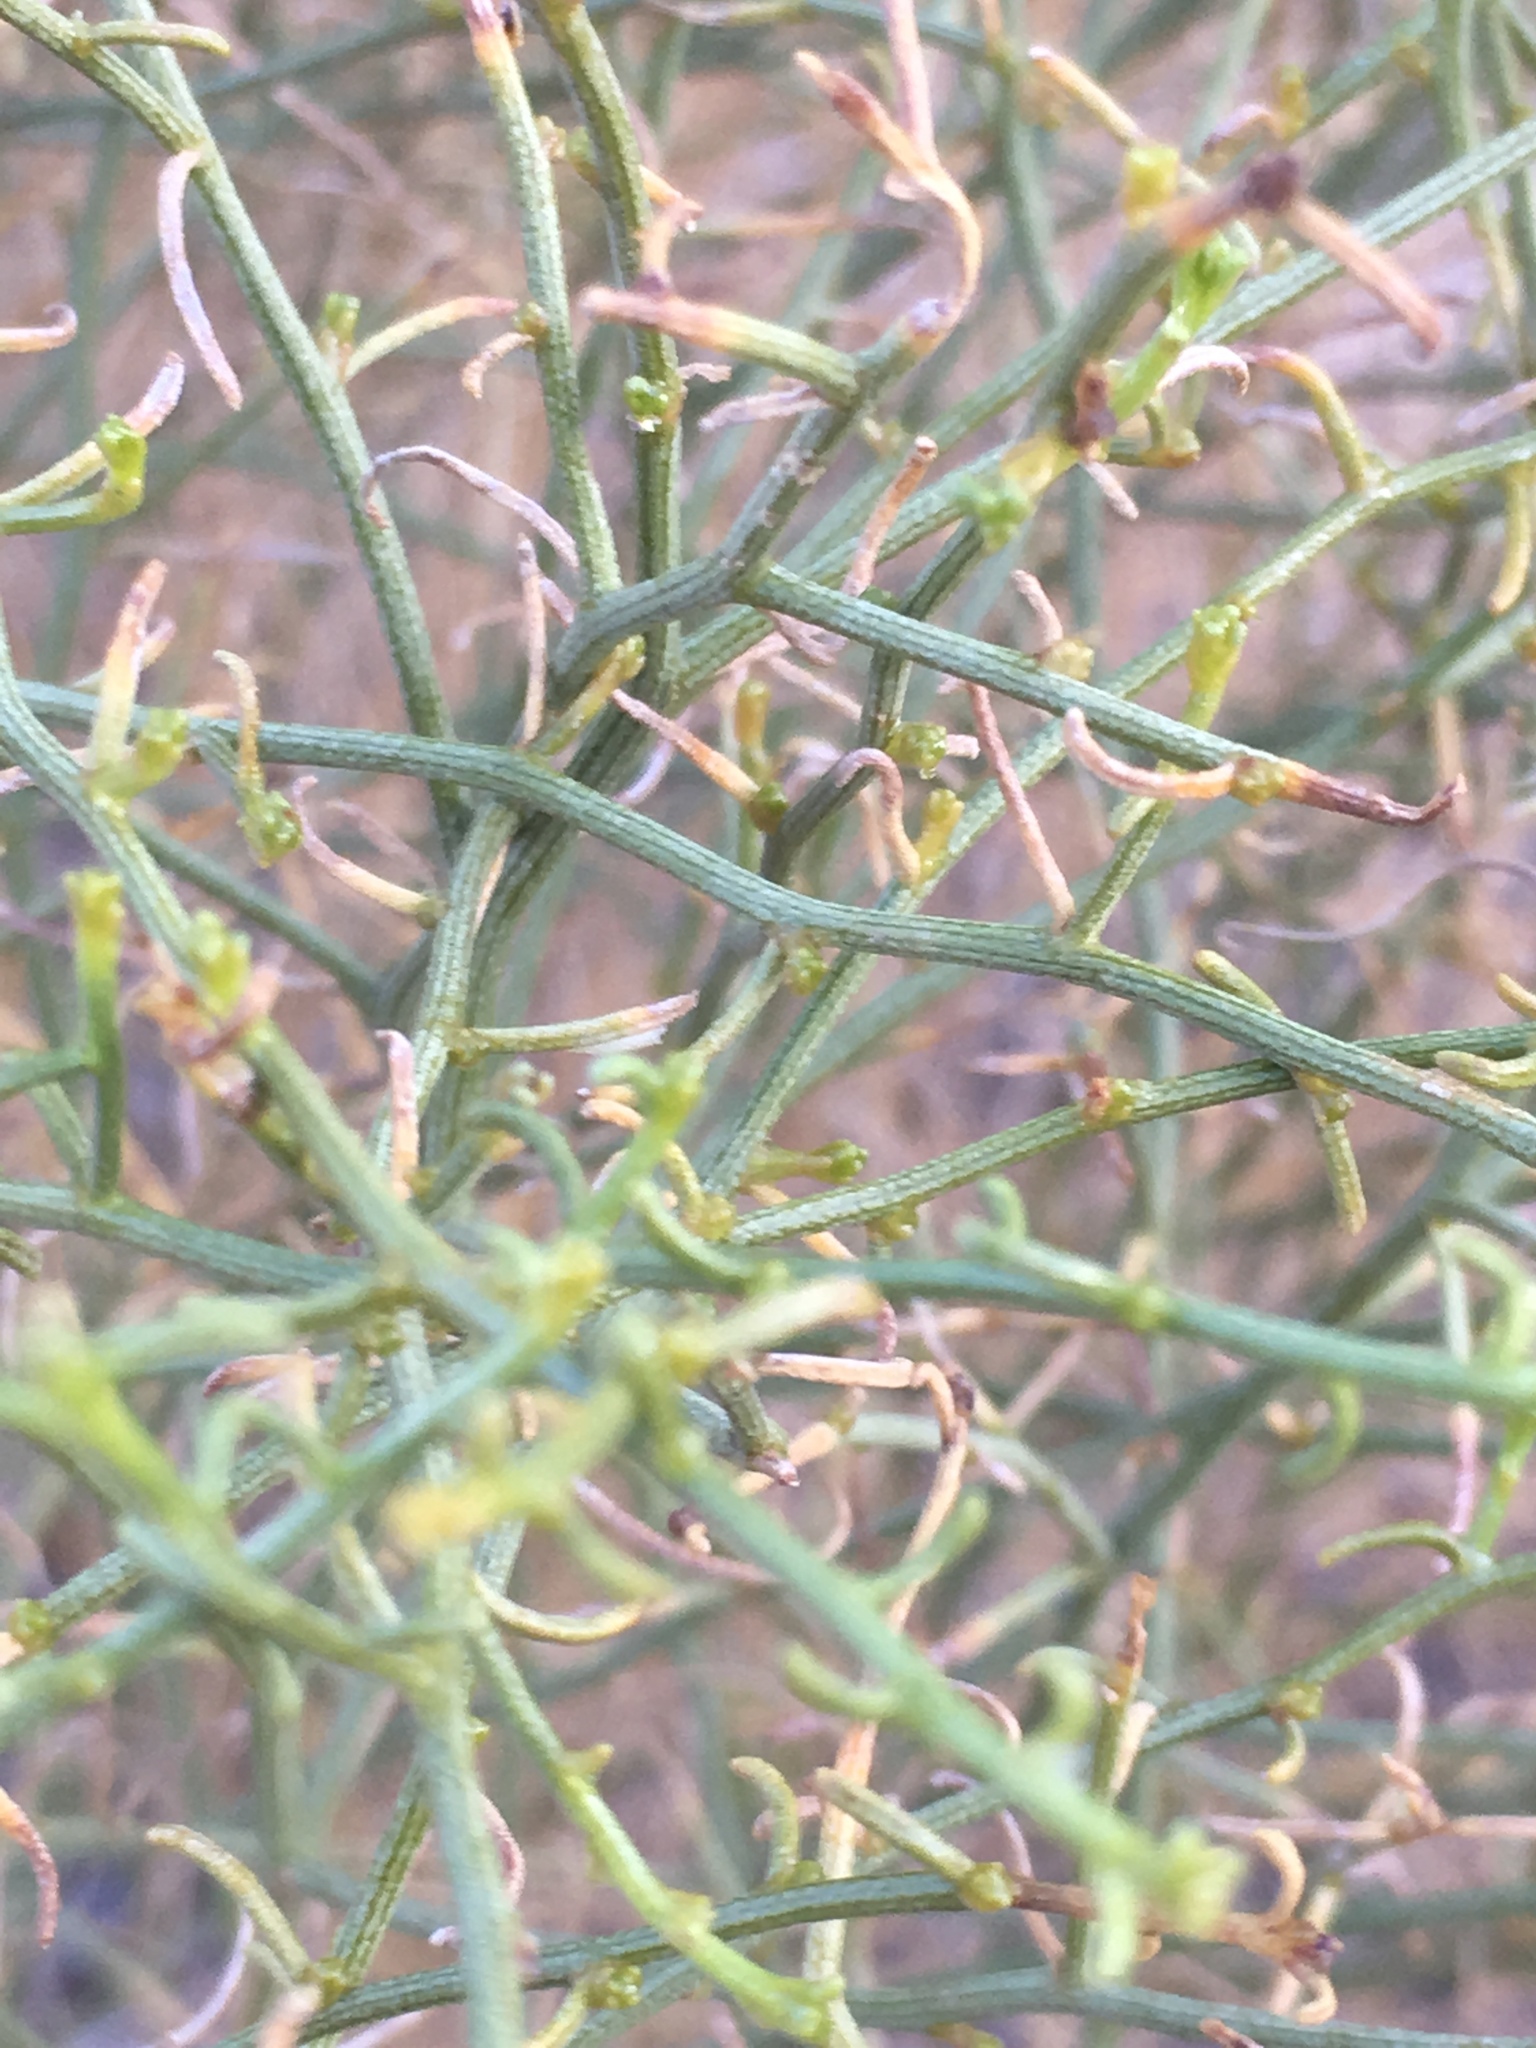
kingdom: Plantae
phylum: Tracheophyta
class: Magnoliopsida
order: Asterales
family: Asteraceae
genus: Ambrosia
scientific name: Ambrosia salsola
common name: Burrobrush
